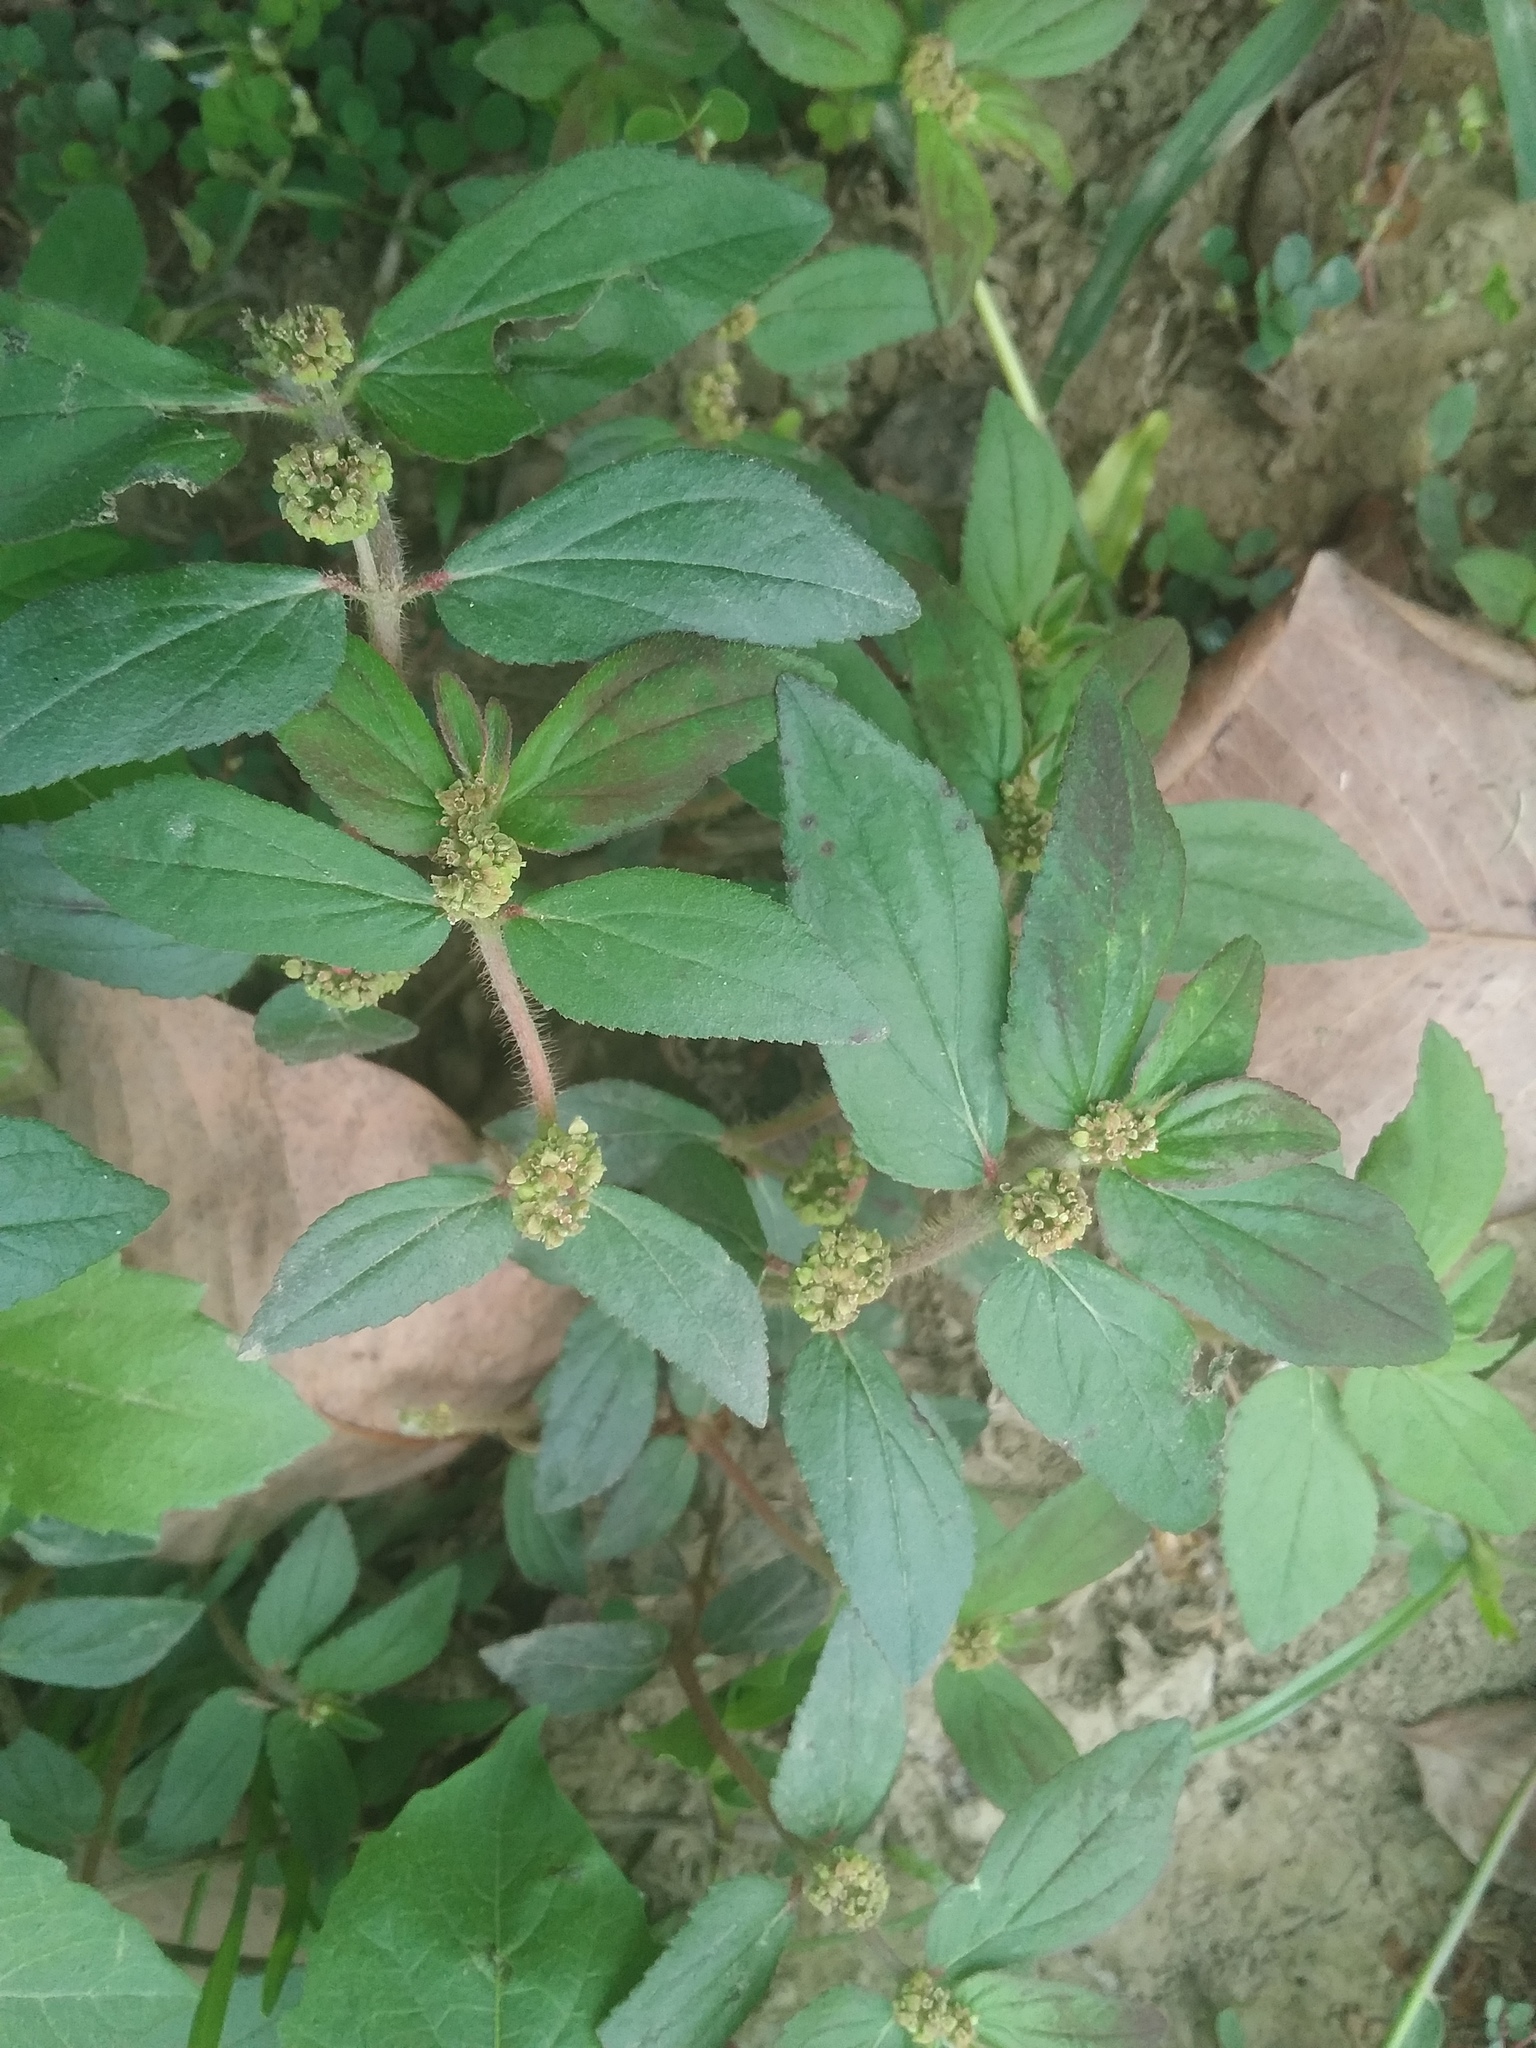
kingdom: Plantae
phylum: Tracheophyta
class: Magnoliopsida
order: Malpighiales
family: Euphorbiaceae
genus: Euphorbia
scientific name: Euphorbia hirta
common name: Pillpod sandmat
